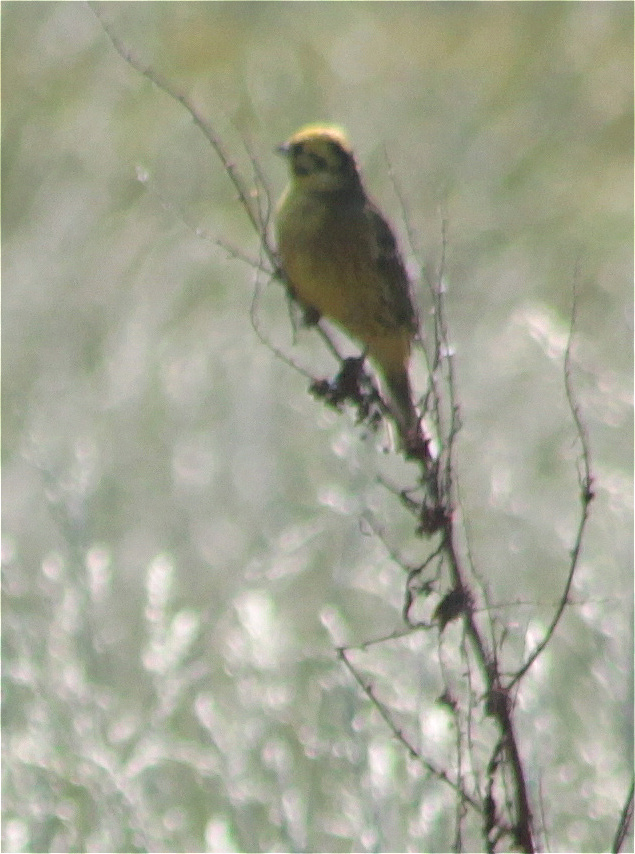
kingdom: Animalia
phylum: Chordata
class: Aves
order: Passeriformes
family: Emberizidae
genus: Emberiza
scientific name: Emberiza citrinella
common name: Yellowhammer
